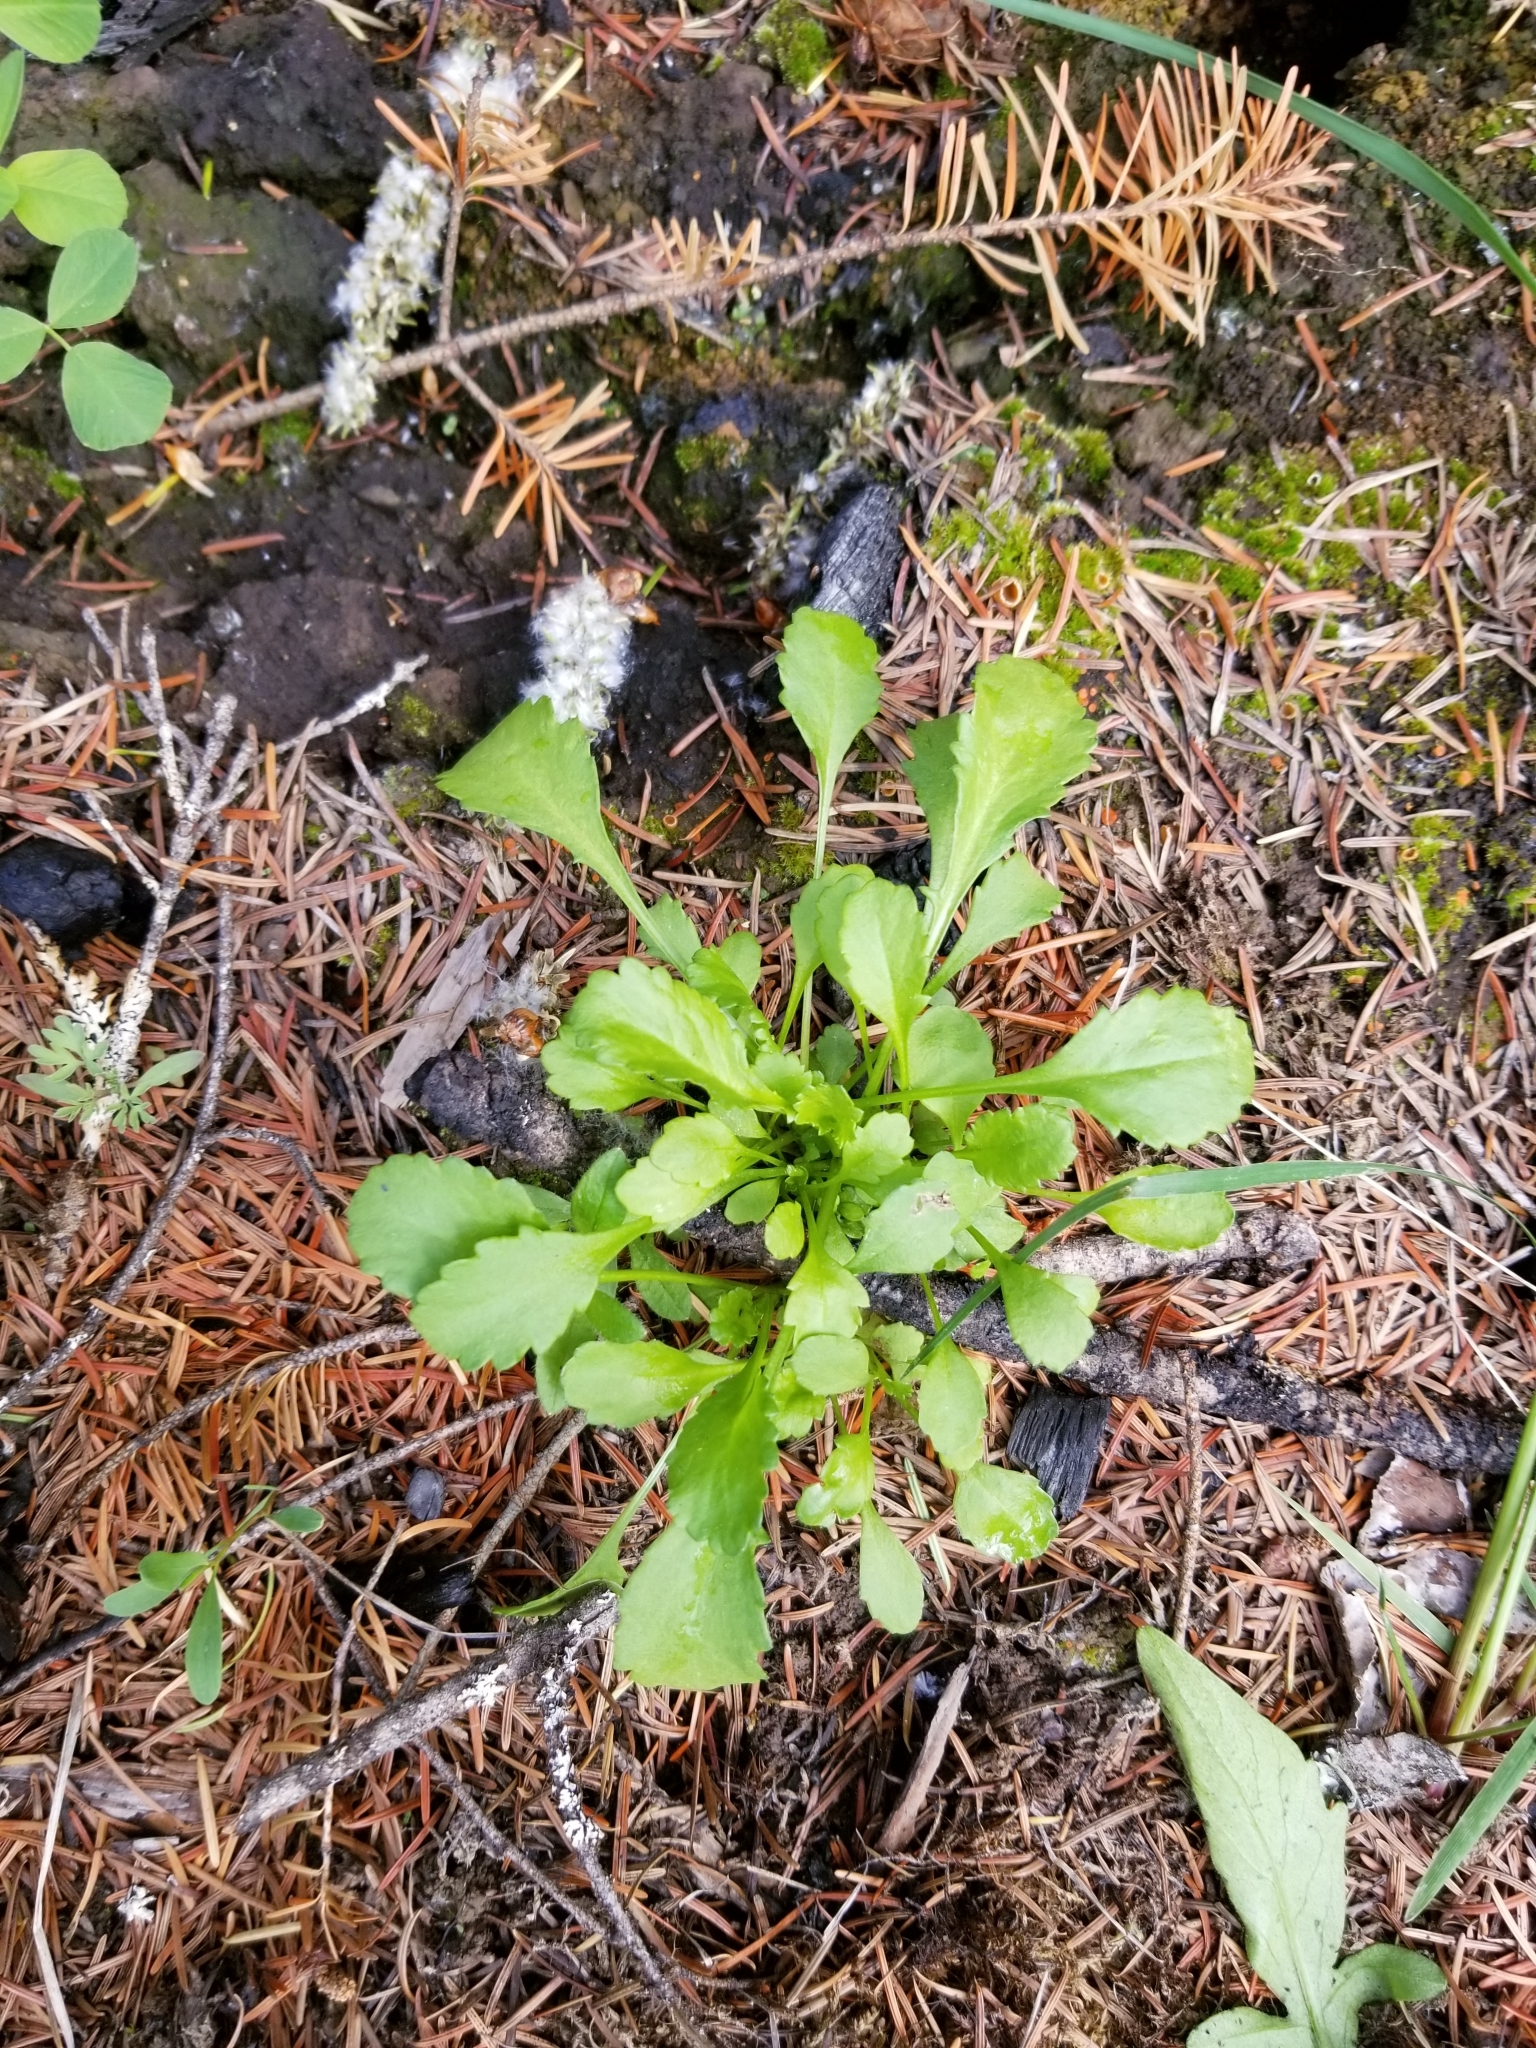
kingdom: Plantae
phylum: Tracheophyta
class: Magnoliopsida
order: Asterales
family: Asteraceae
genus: Leucanthemum
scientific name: Leucanthemum vulgare
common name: Oxeye daisy
